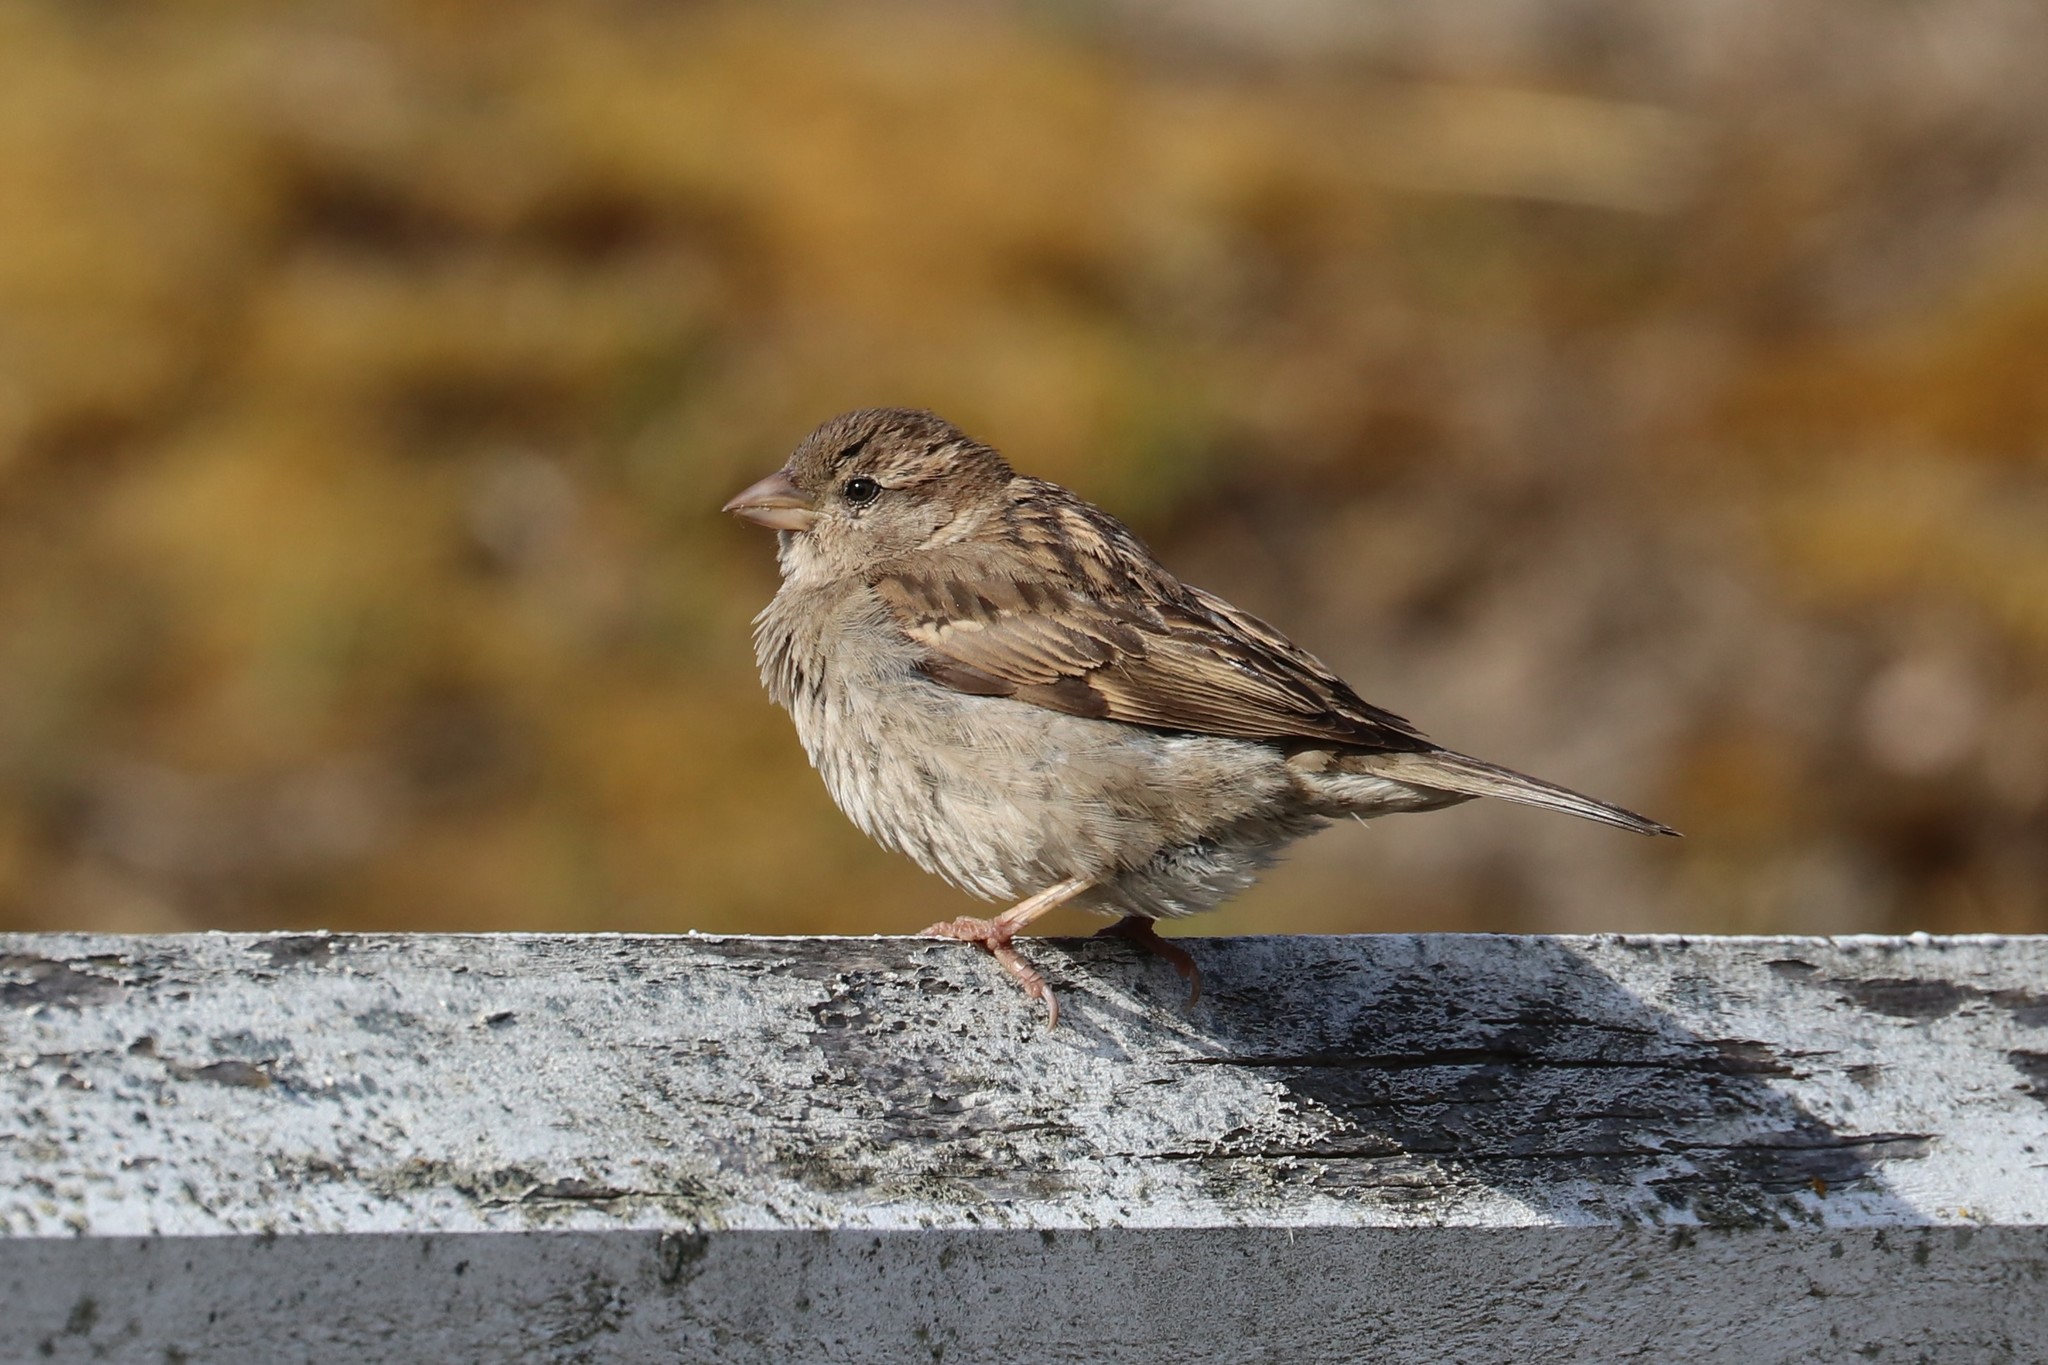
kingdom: Animalia
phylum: Chordata
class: Aves
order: Passeriformes
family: Passeridae
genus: Passer
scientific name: Passer domesticus
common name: House sparrow
